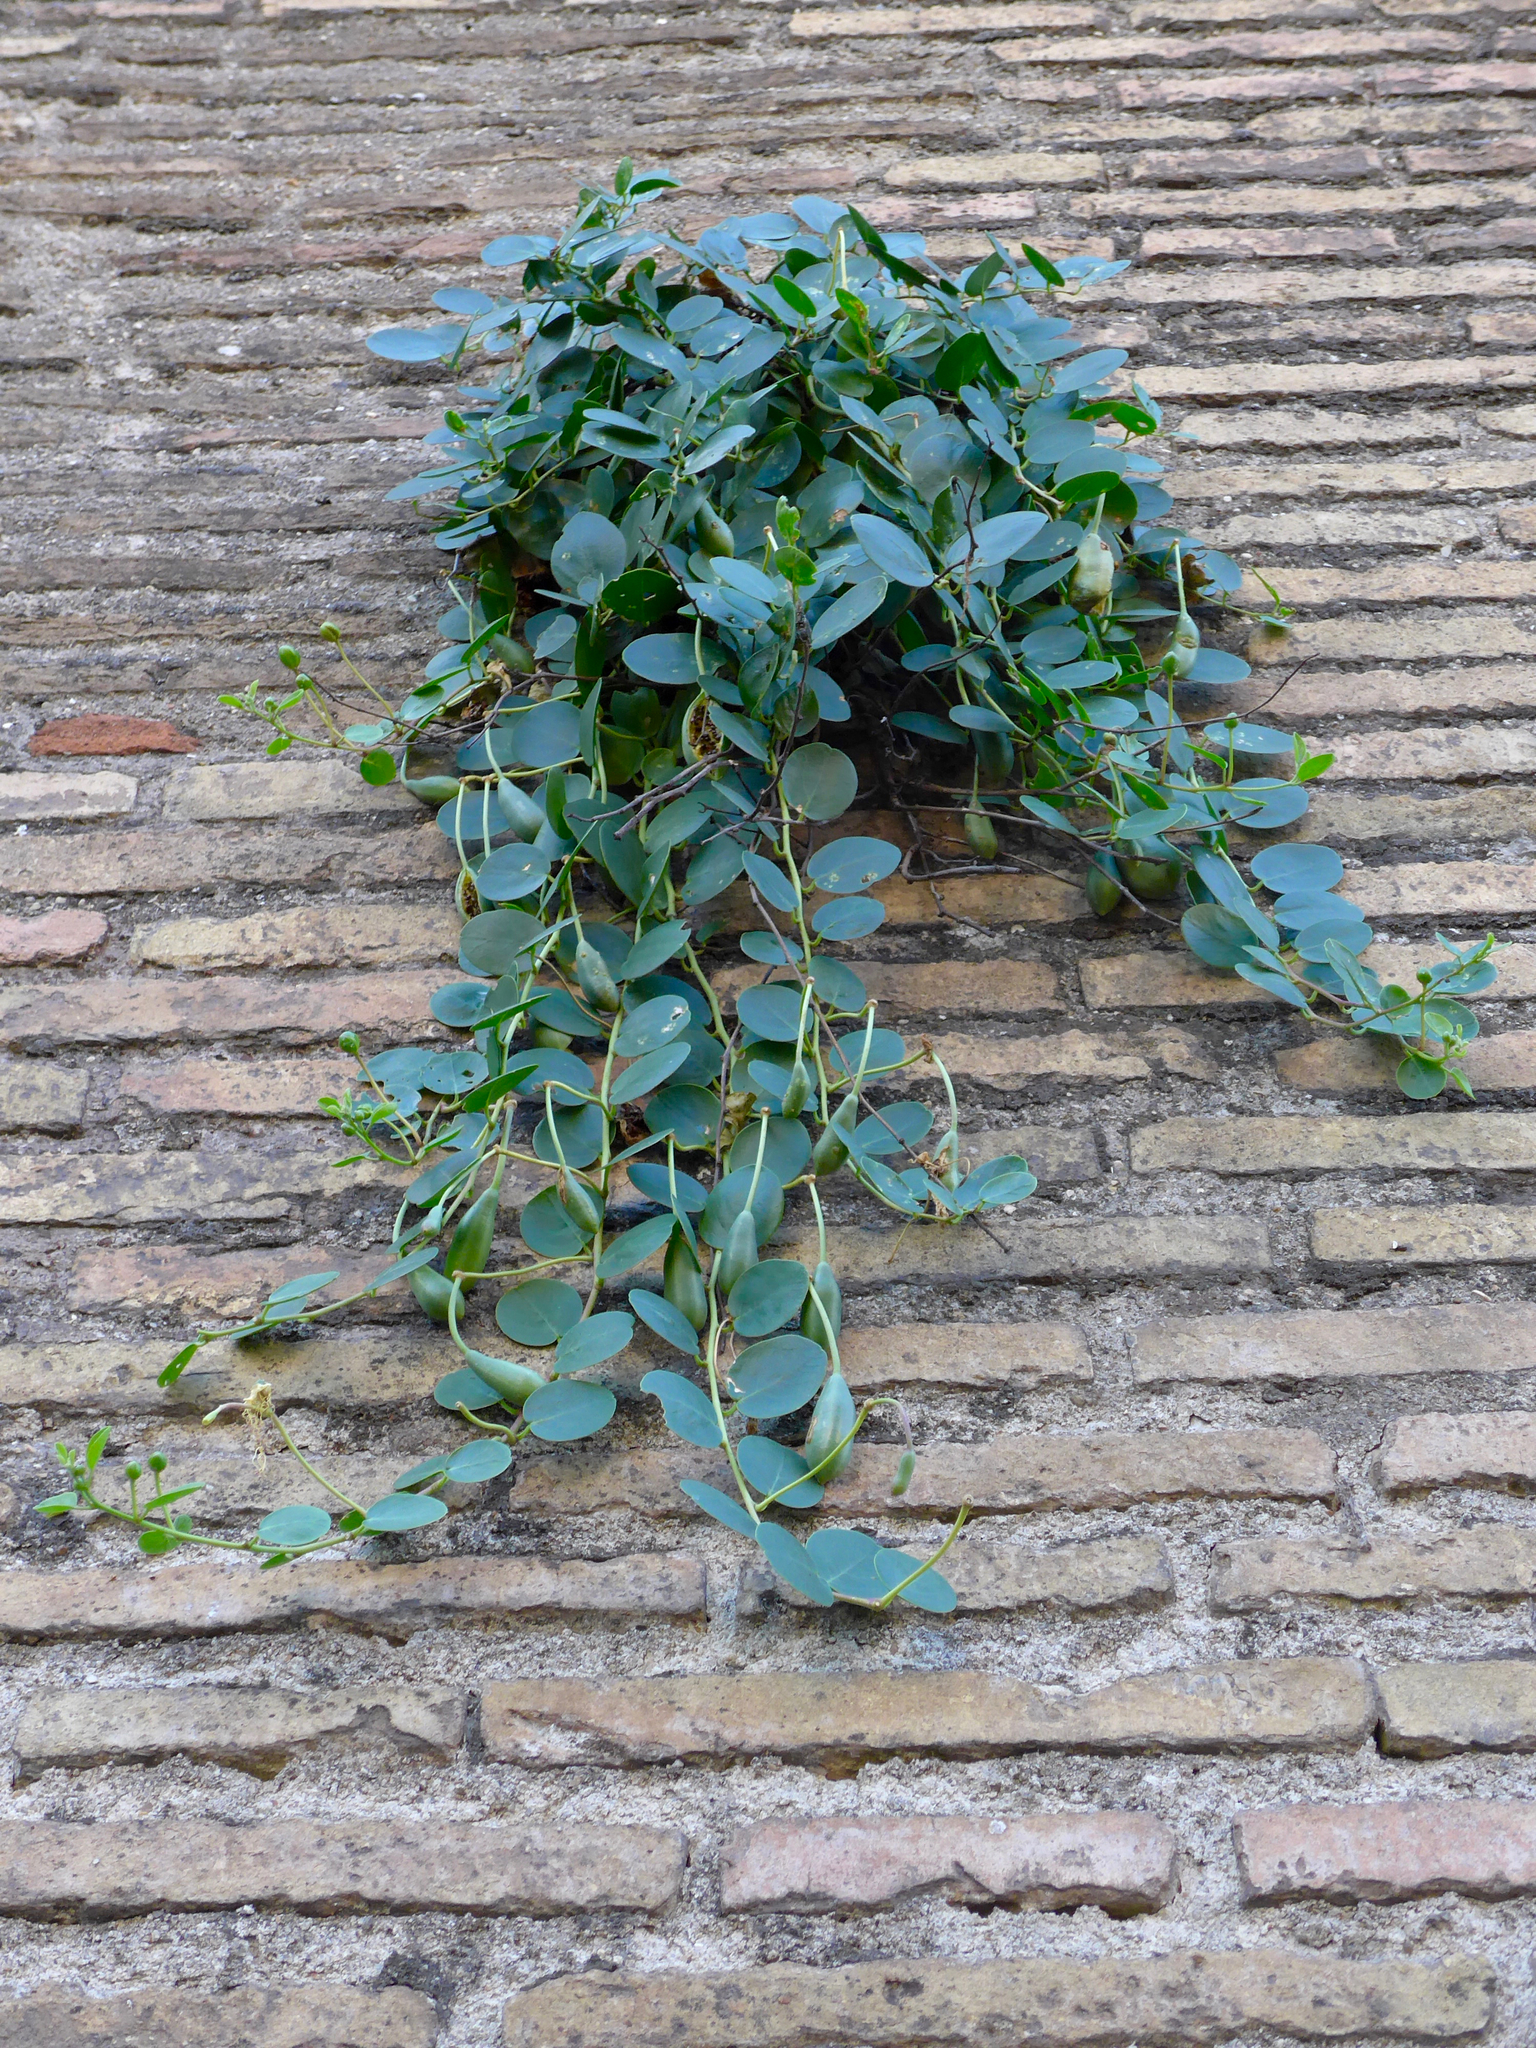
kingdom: Plantae
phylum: Tracheophyta
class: Magnoliopsida
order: Brassicales
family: Capparaceae
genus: Capparis
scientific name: Capparis spinosa
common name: Caper
